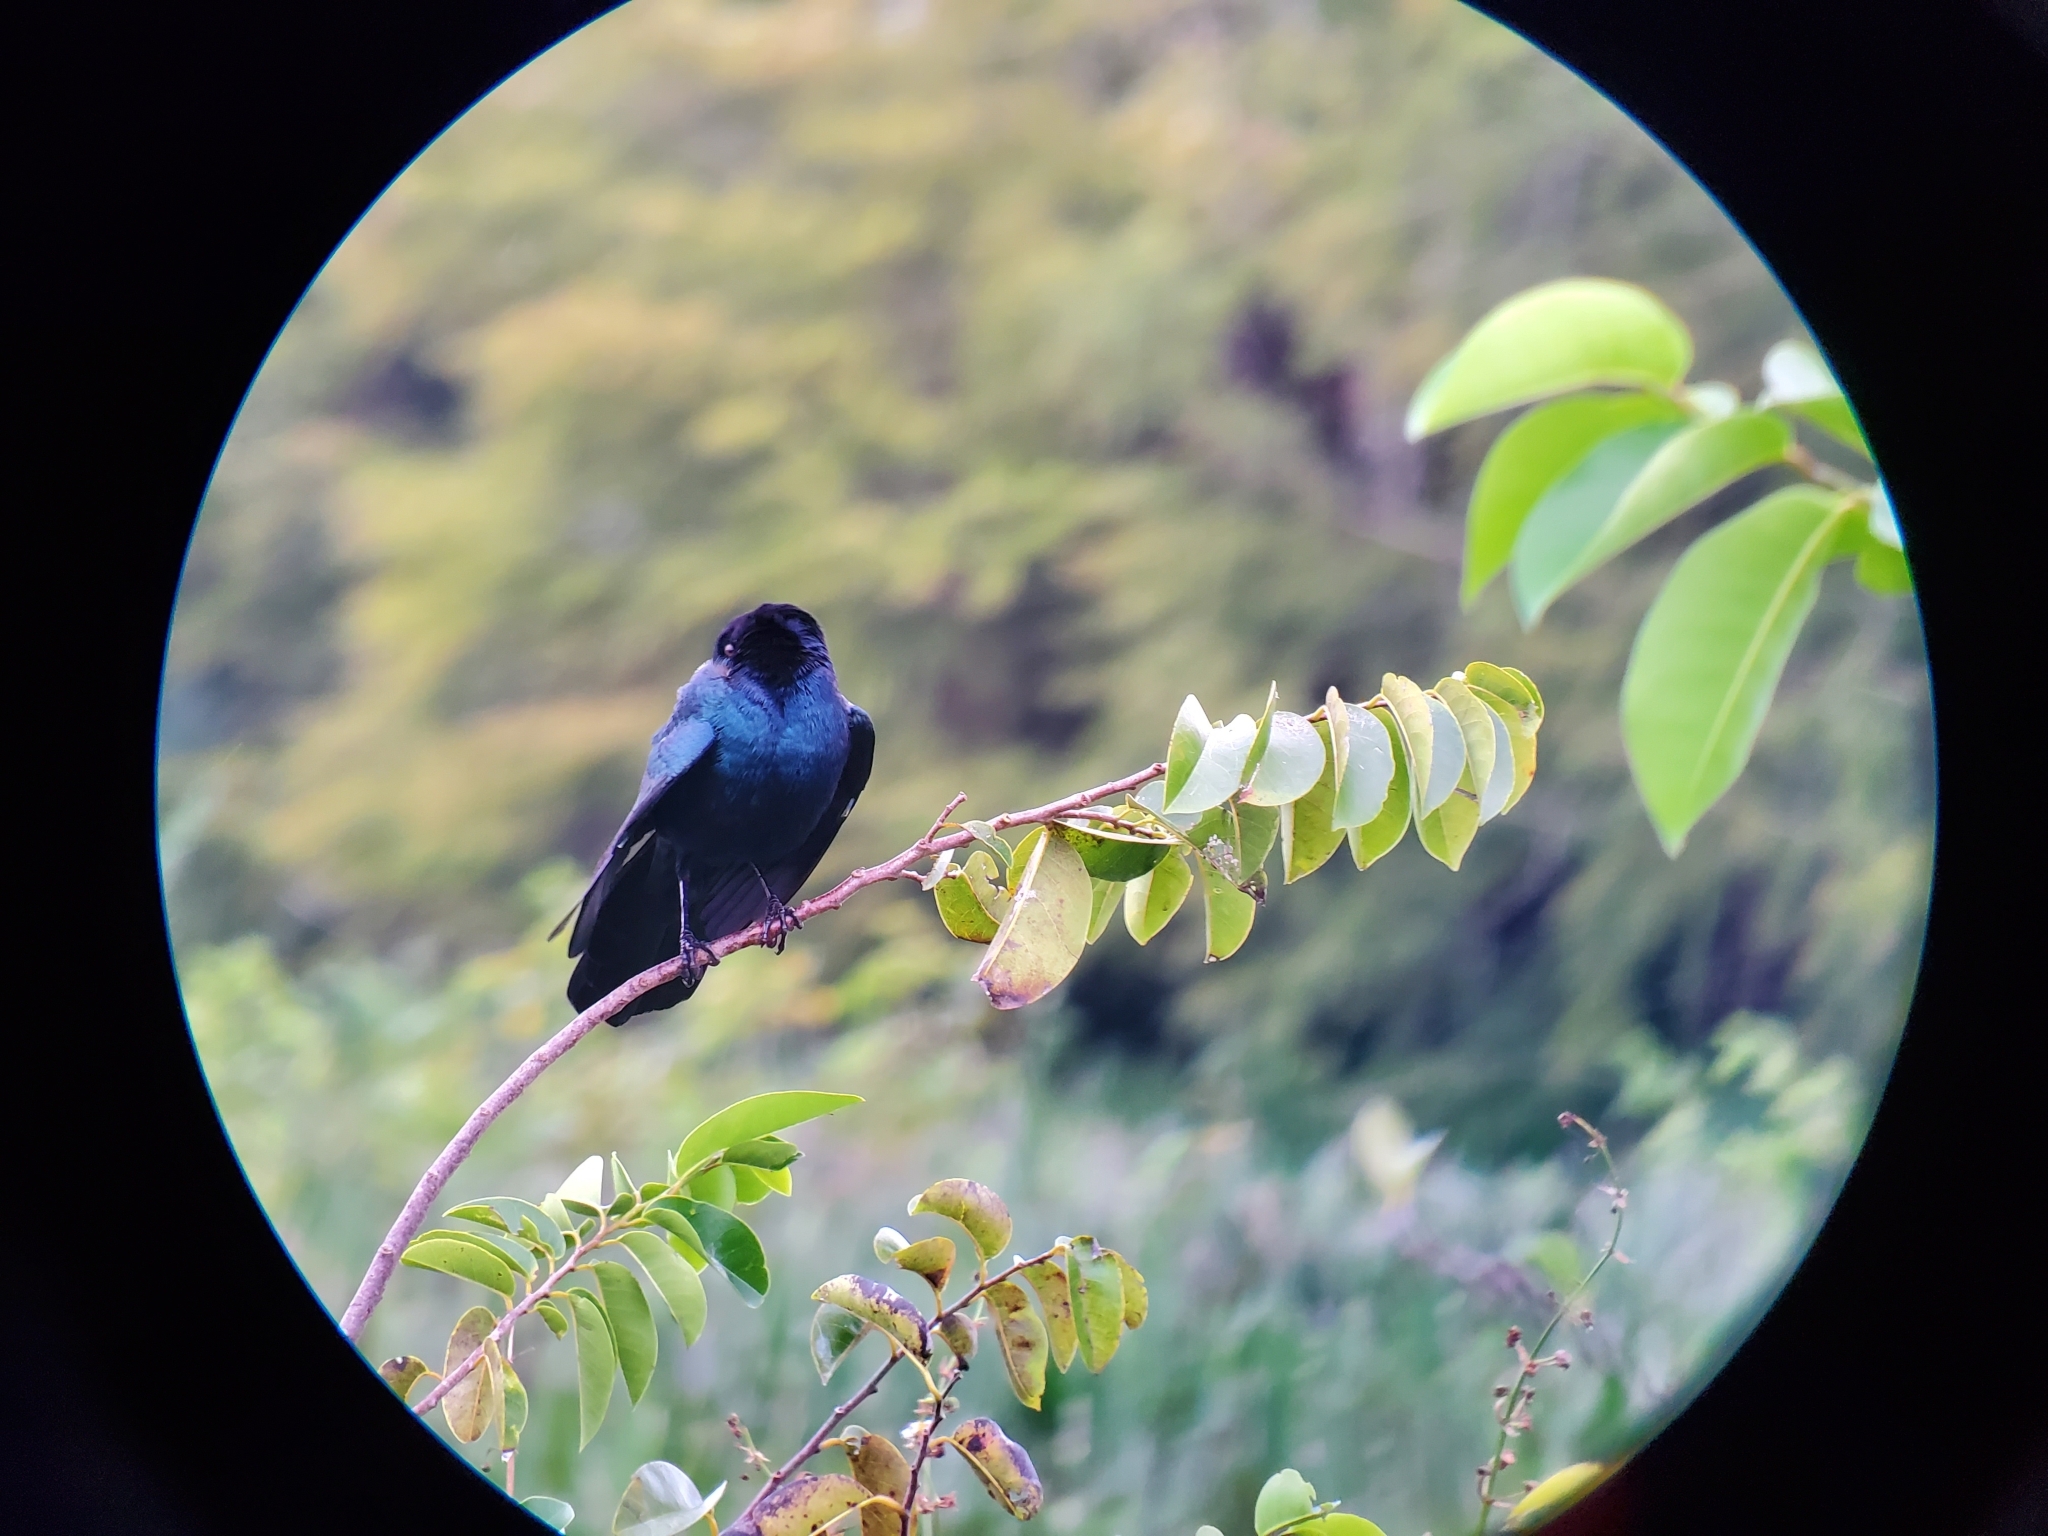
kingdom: Animalia
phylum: Chordata
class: Aves
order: Passeriformes
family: Icteridae
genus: Quiscalus
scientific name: Quiscalus major
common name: Boat-tailed grackle
